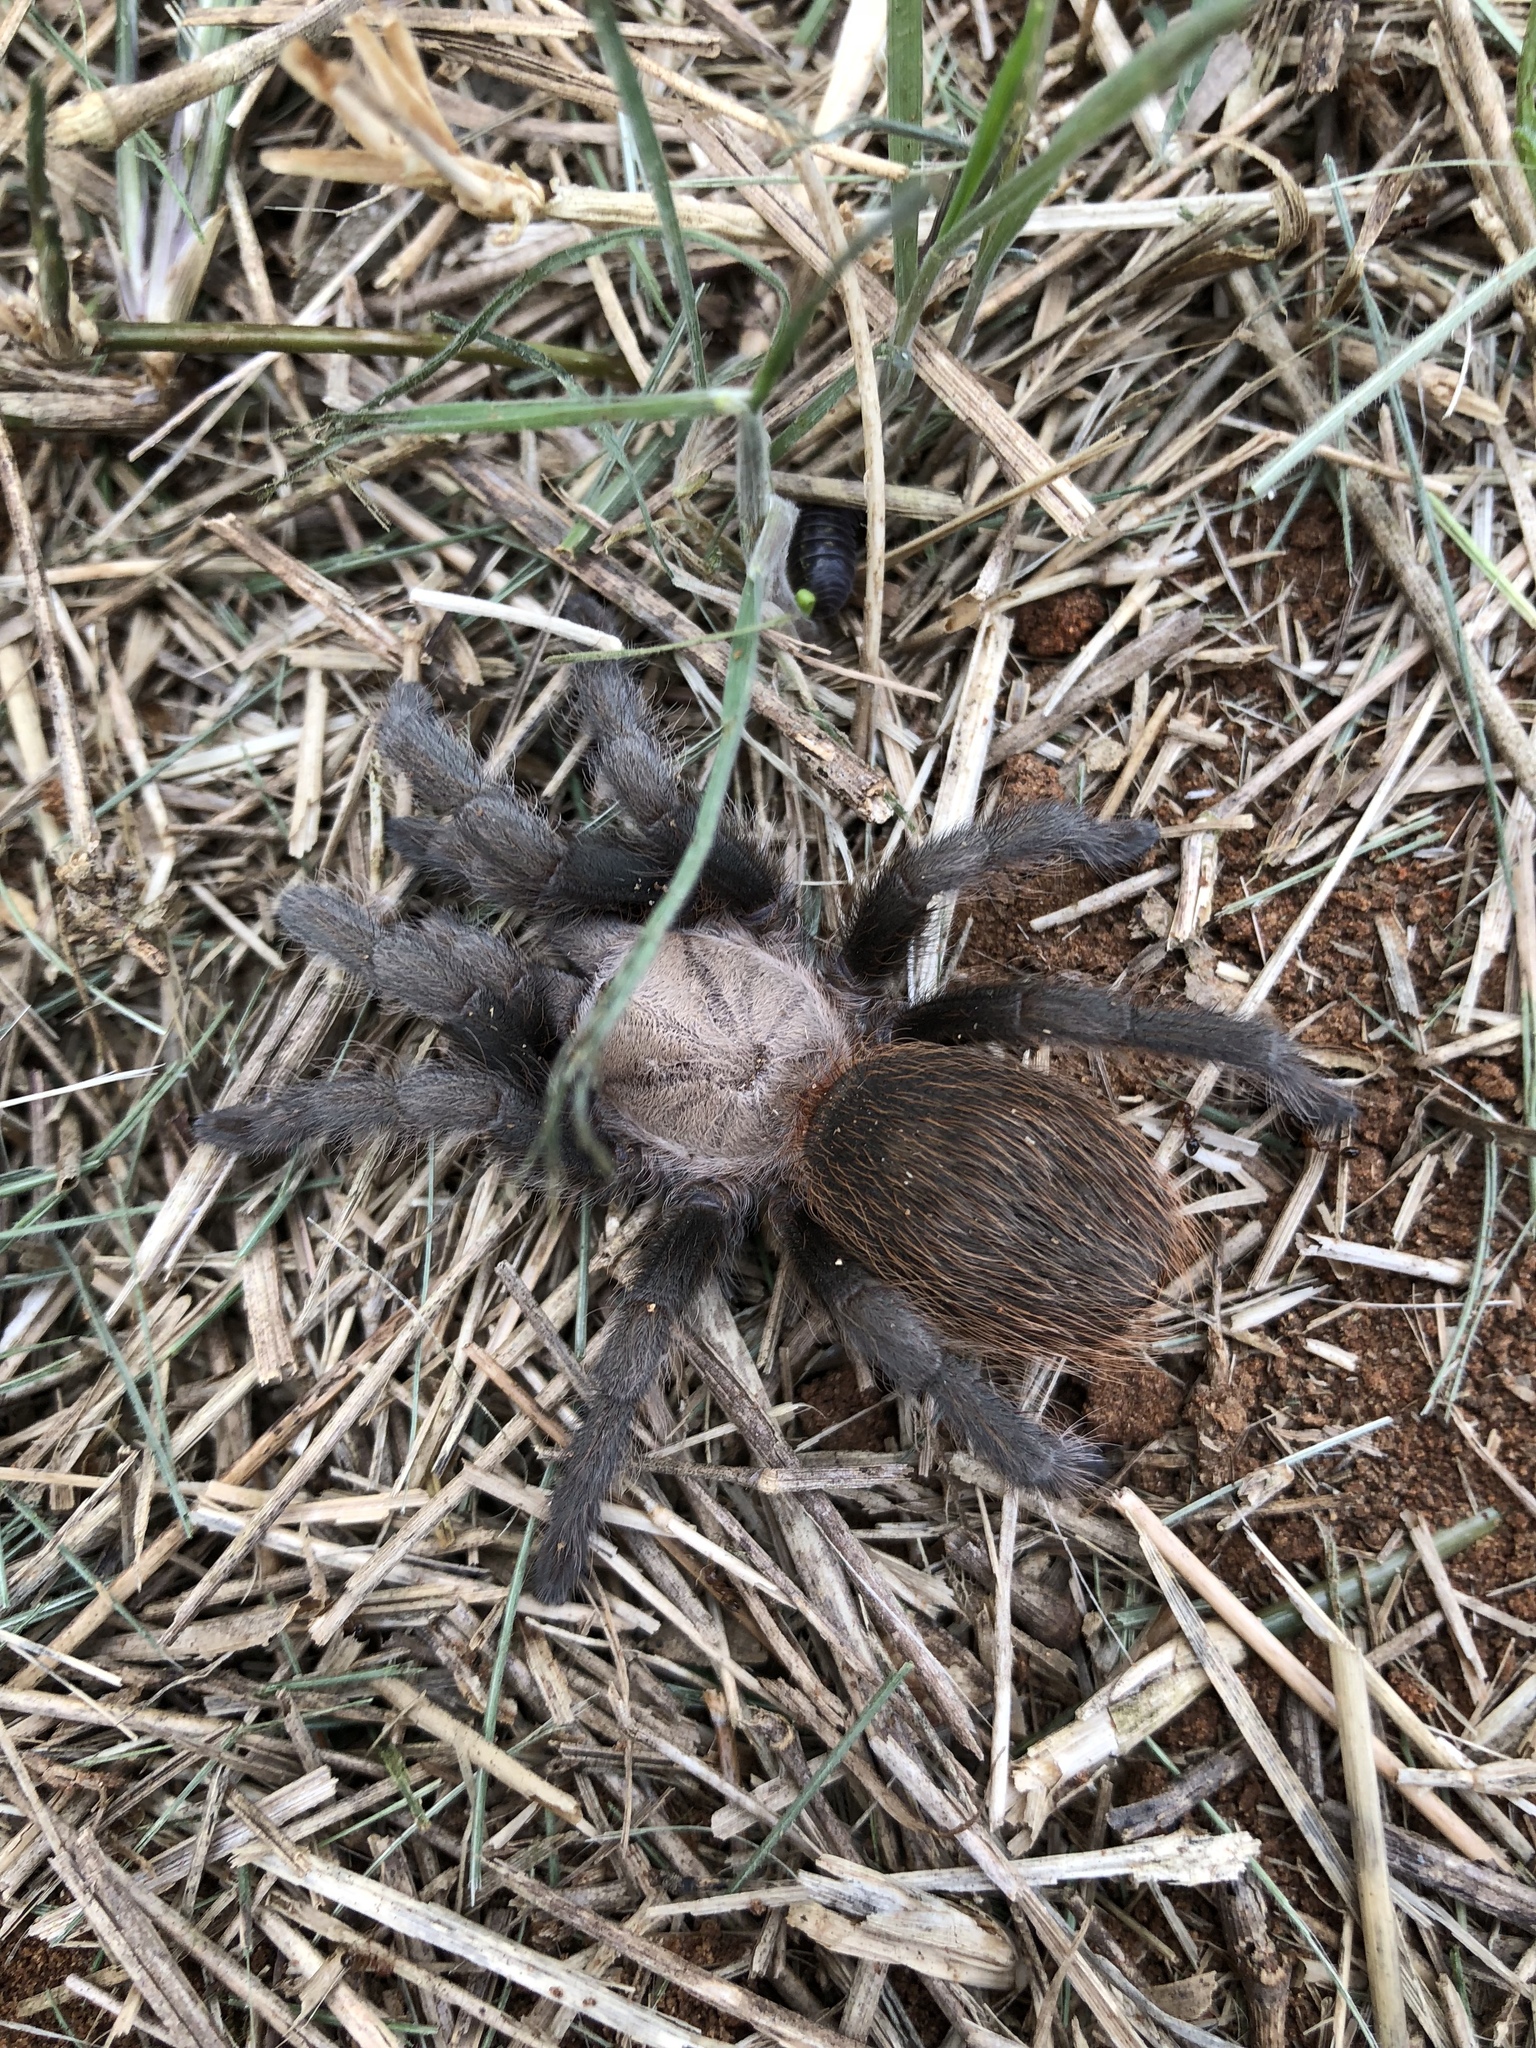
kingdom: Animalia
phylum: Arthropoda
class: Arachnida
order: Araneae
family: Theraphosidae
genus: Aphonopelma
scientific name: Aphonopelma anax
